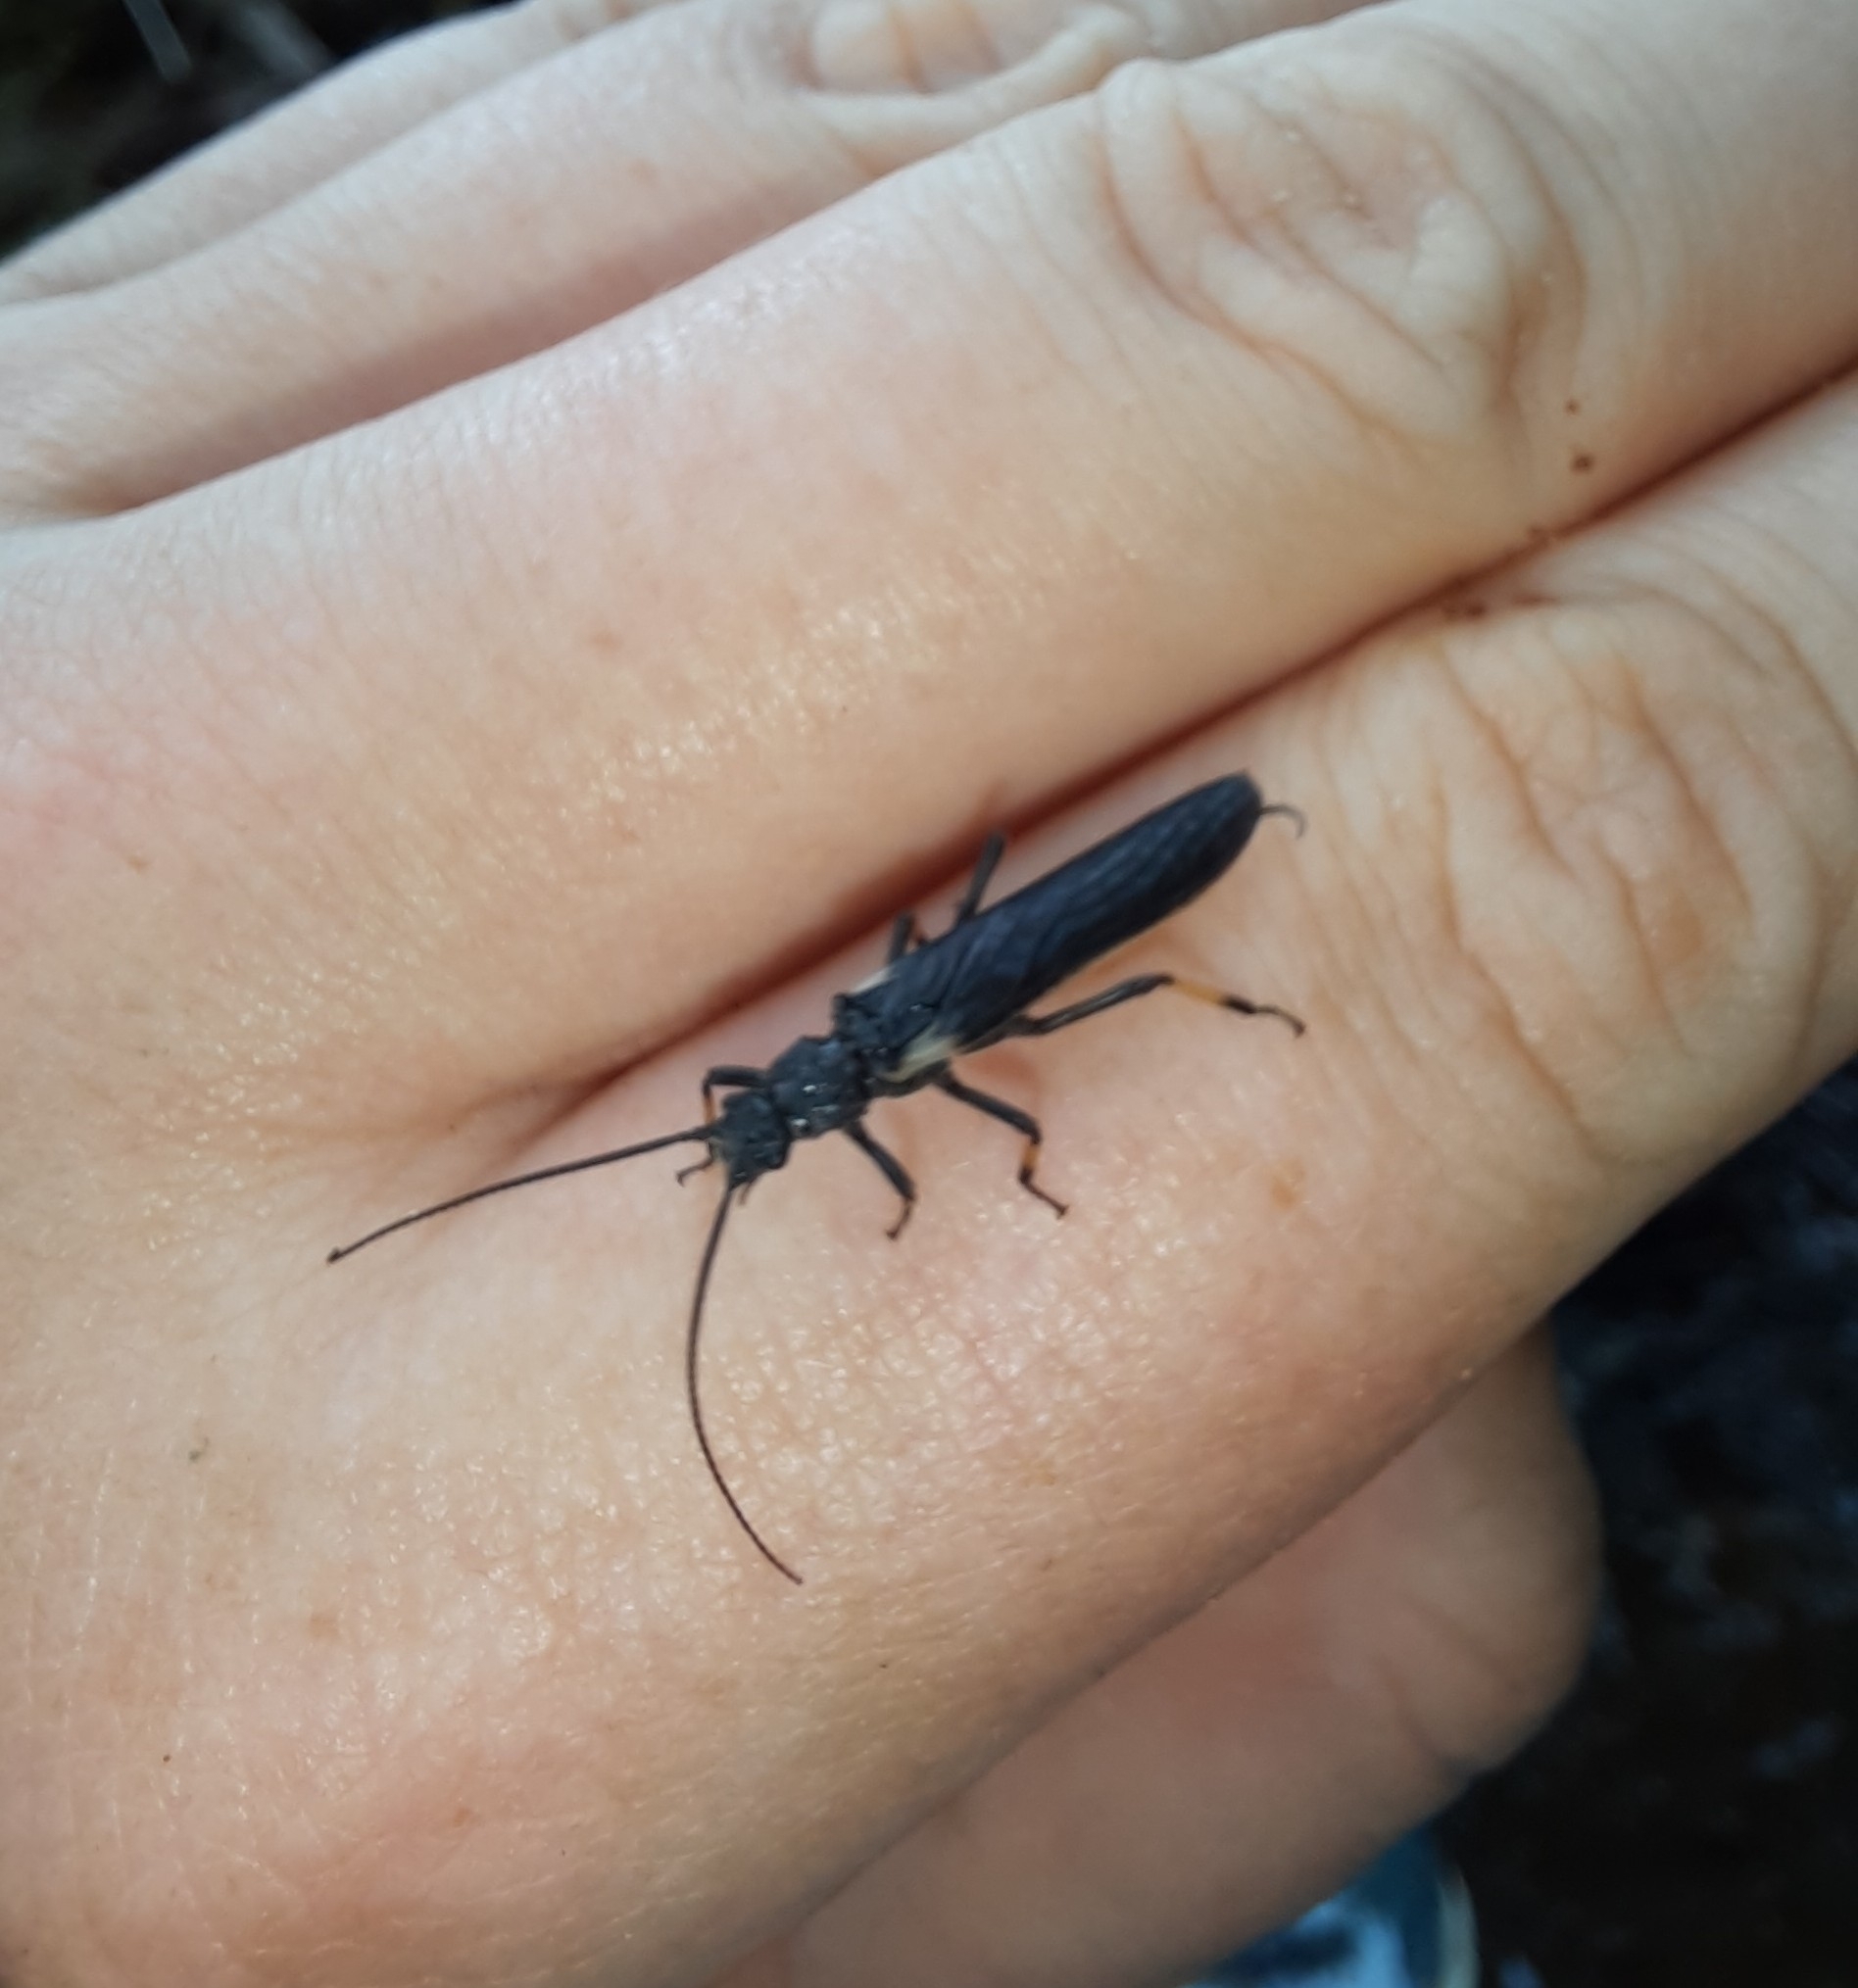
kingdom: Animalia
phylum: Arthropoda
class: Insecta
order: Plecoptera
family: Austroperlidae
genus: Austroperla
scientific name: Austroperla cyrene
